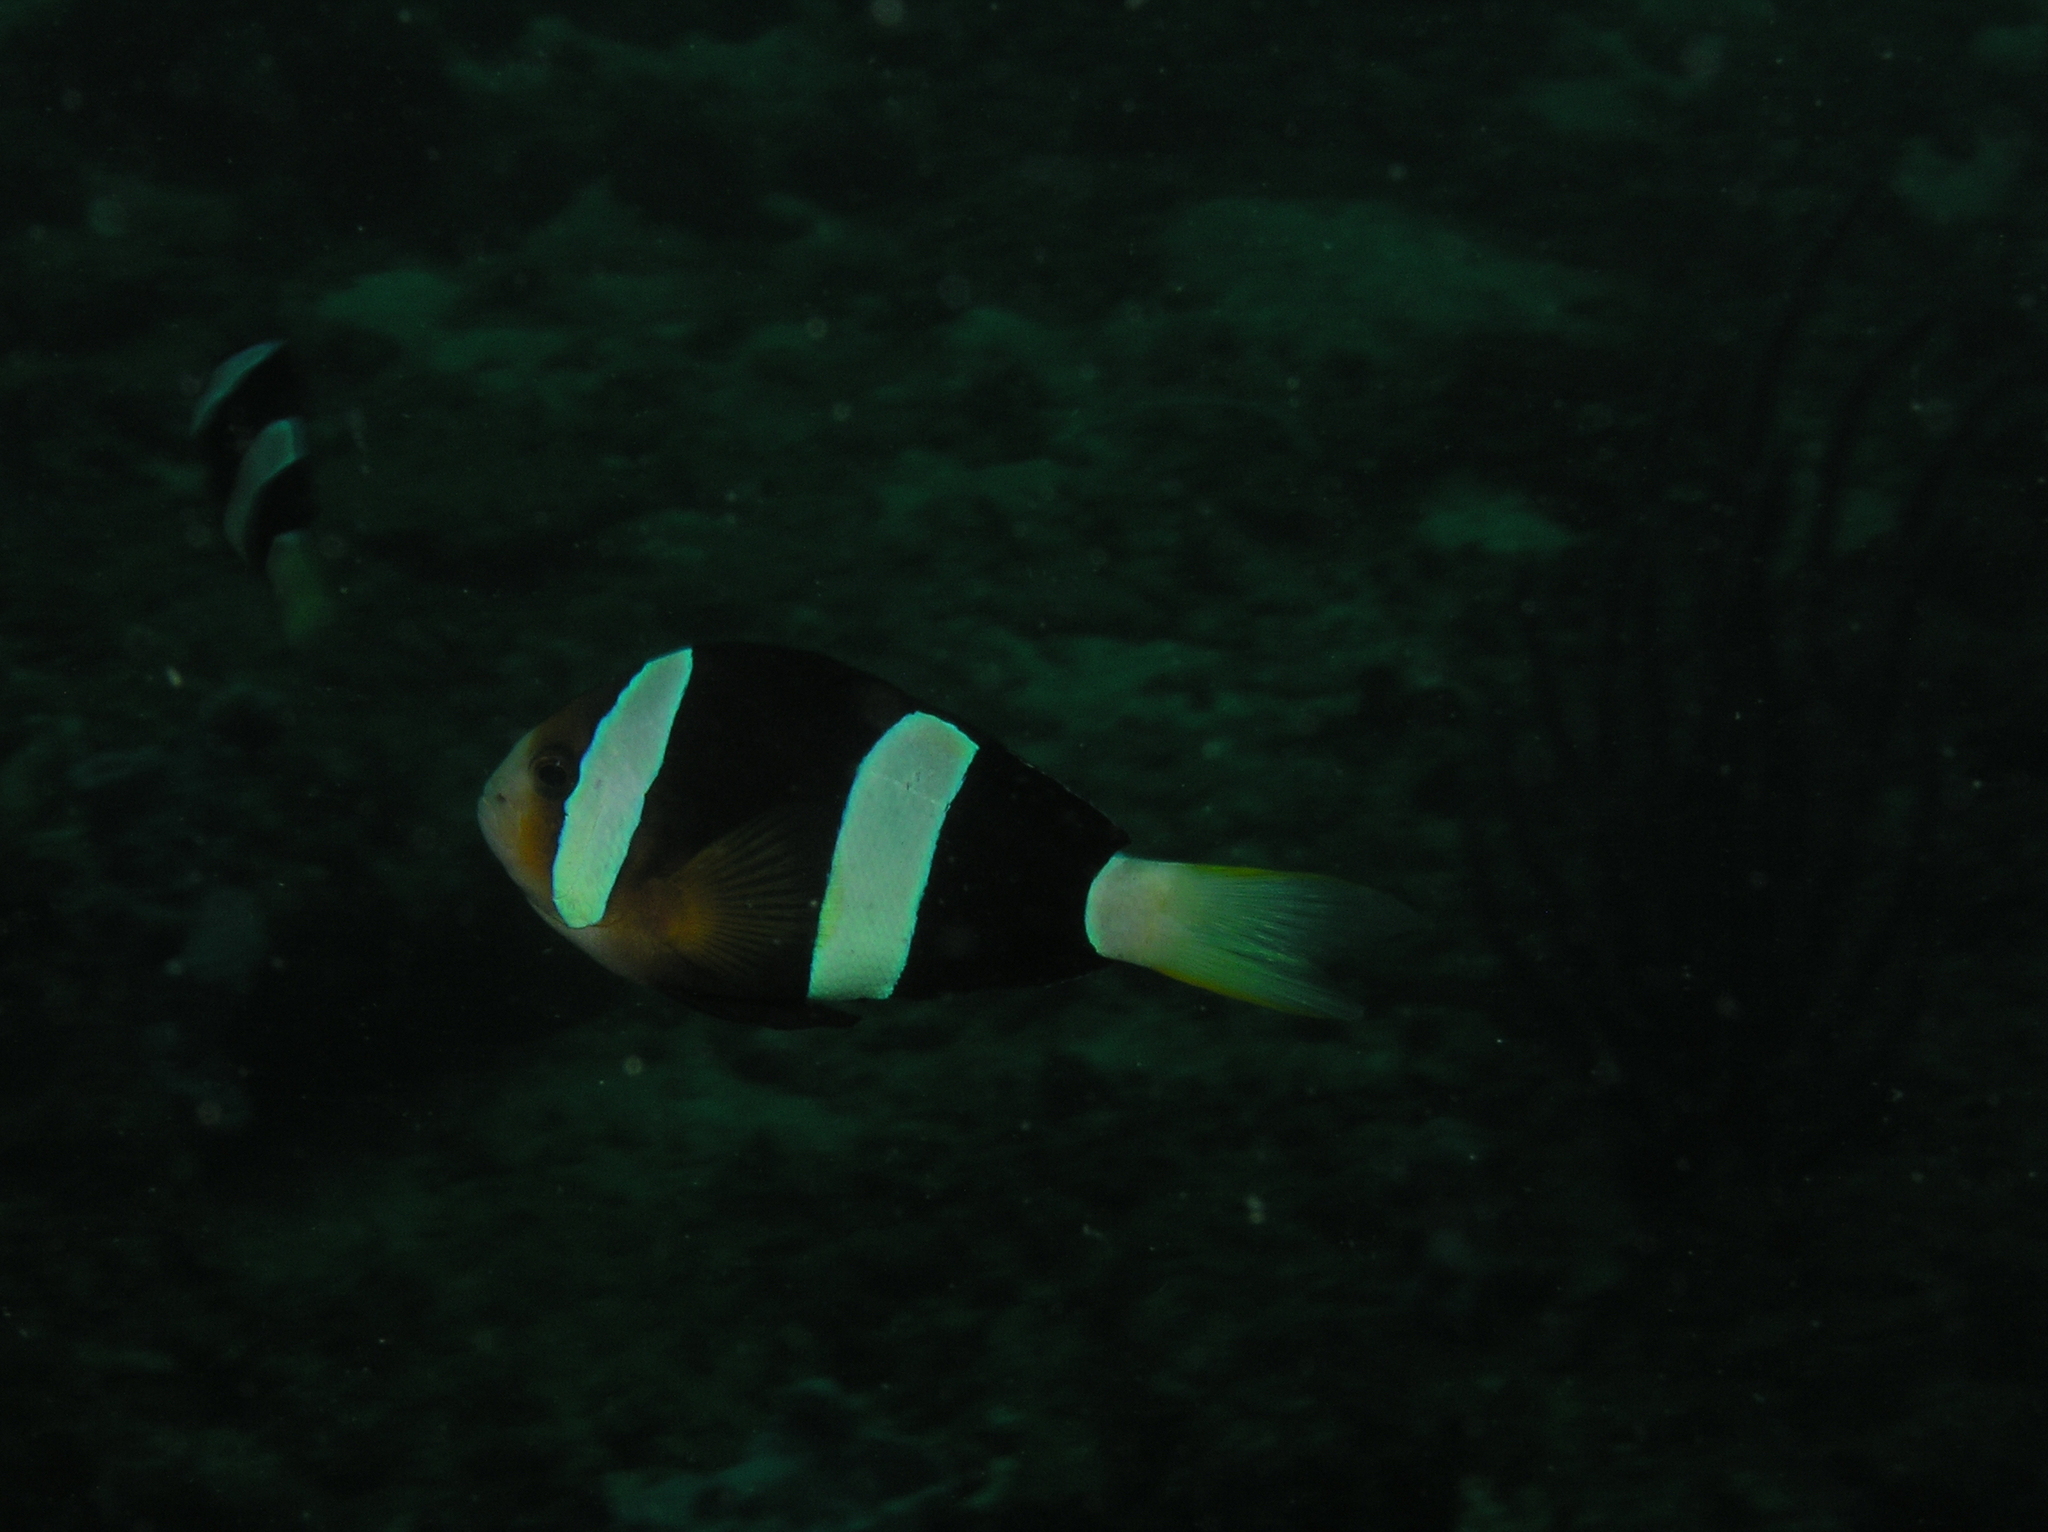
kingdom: Animalia
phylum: Chordata
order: Perciformes
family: Pomacentridae
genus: Amphiprion
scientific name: Amphiprion clarkii
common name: Clark's anemonefish
